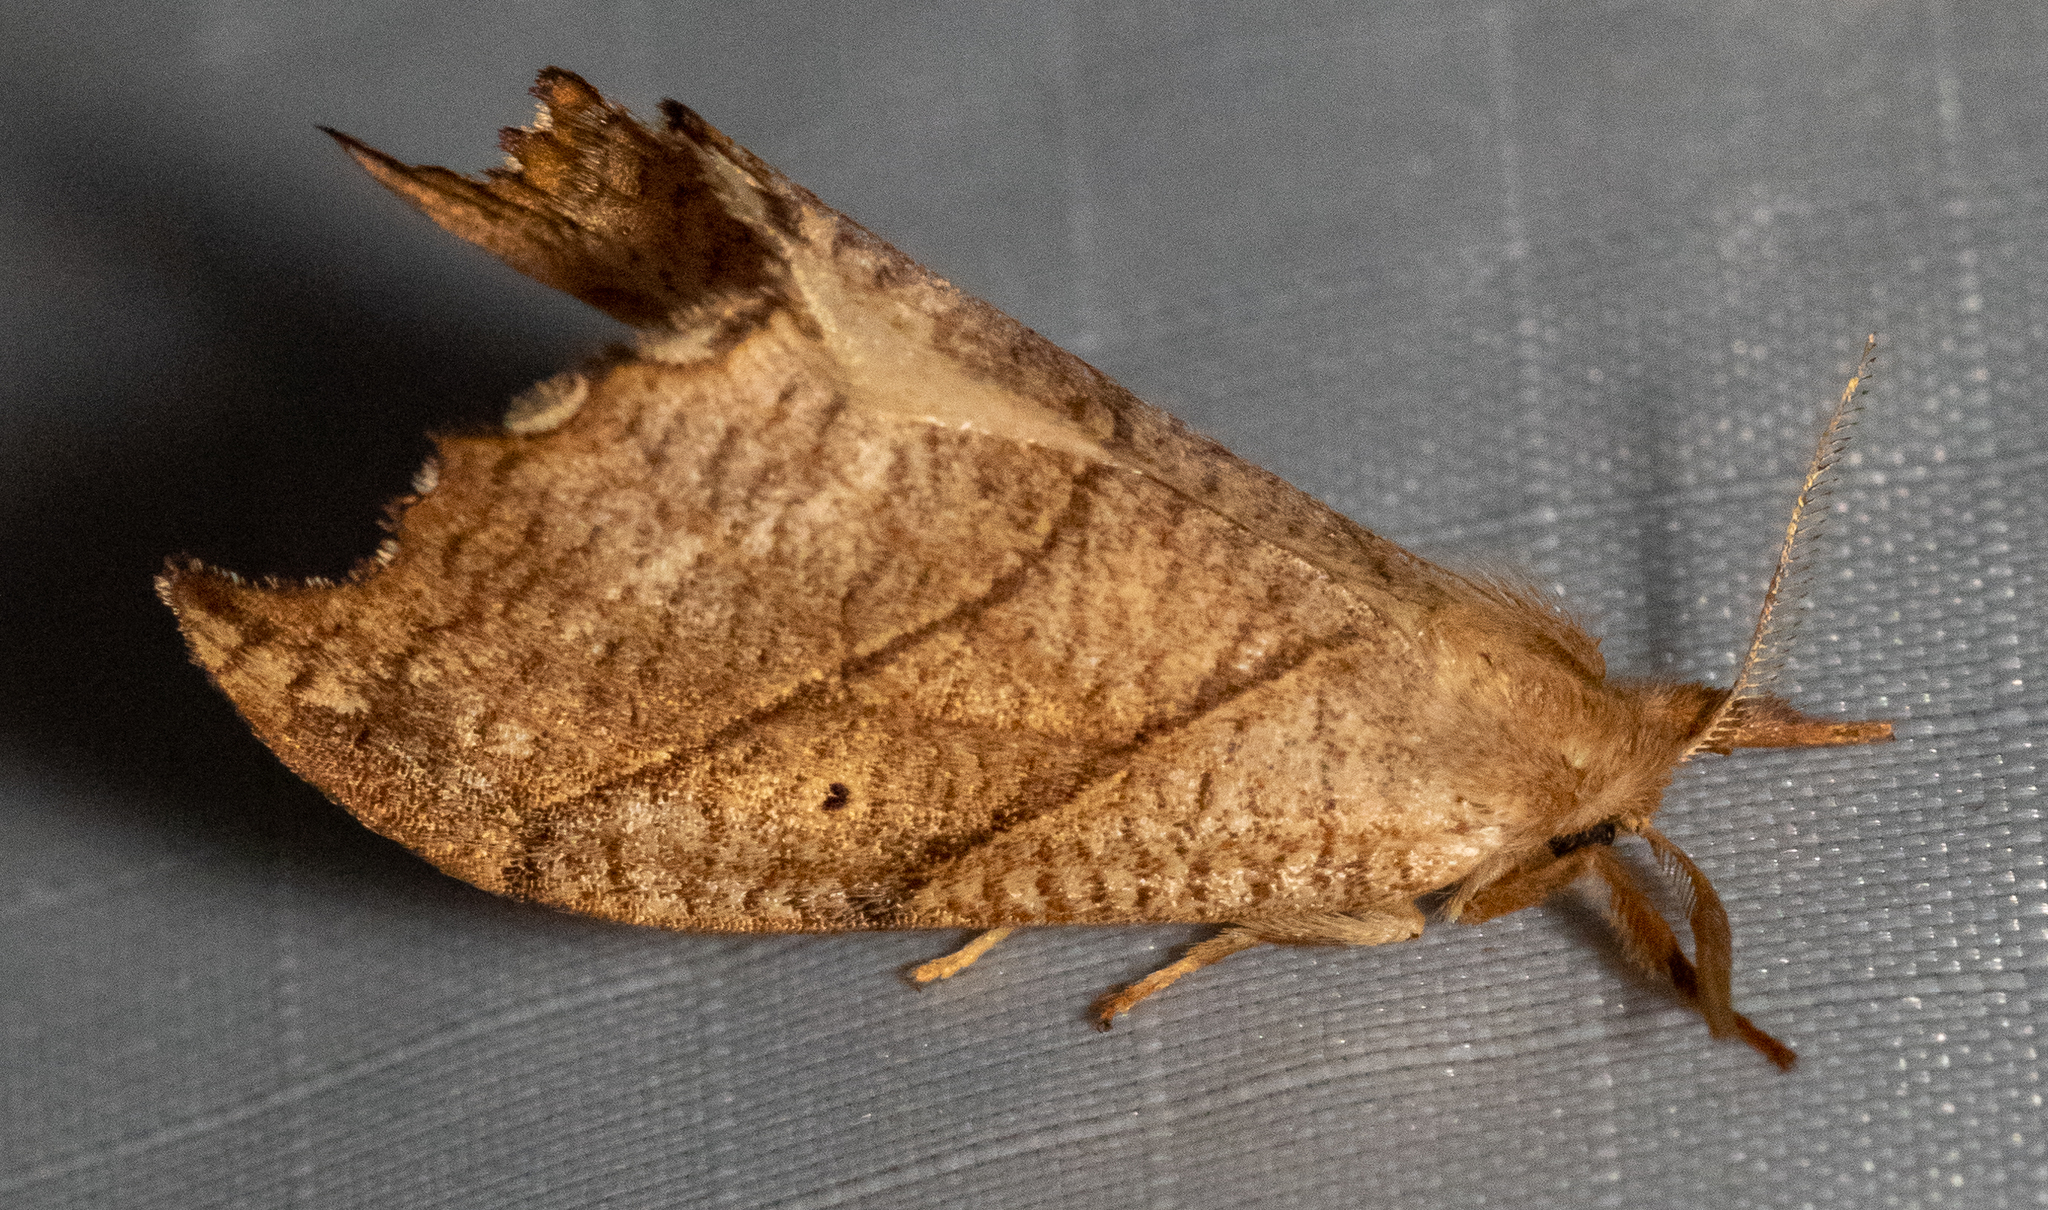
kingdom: Animalia
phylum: Arthropoda
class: Insecta
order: Lepidoptera
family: Drepanidae
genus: Falcaria
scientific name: Falcaria bilineata
